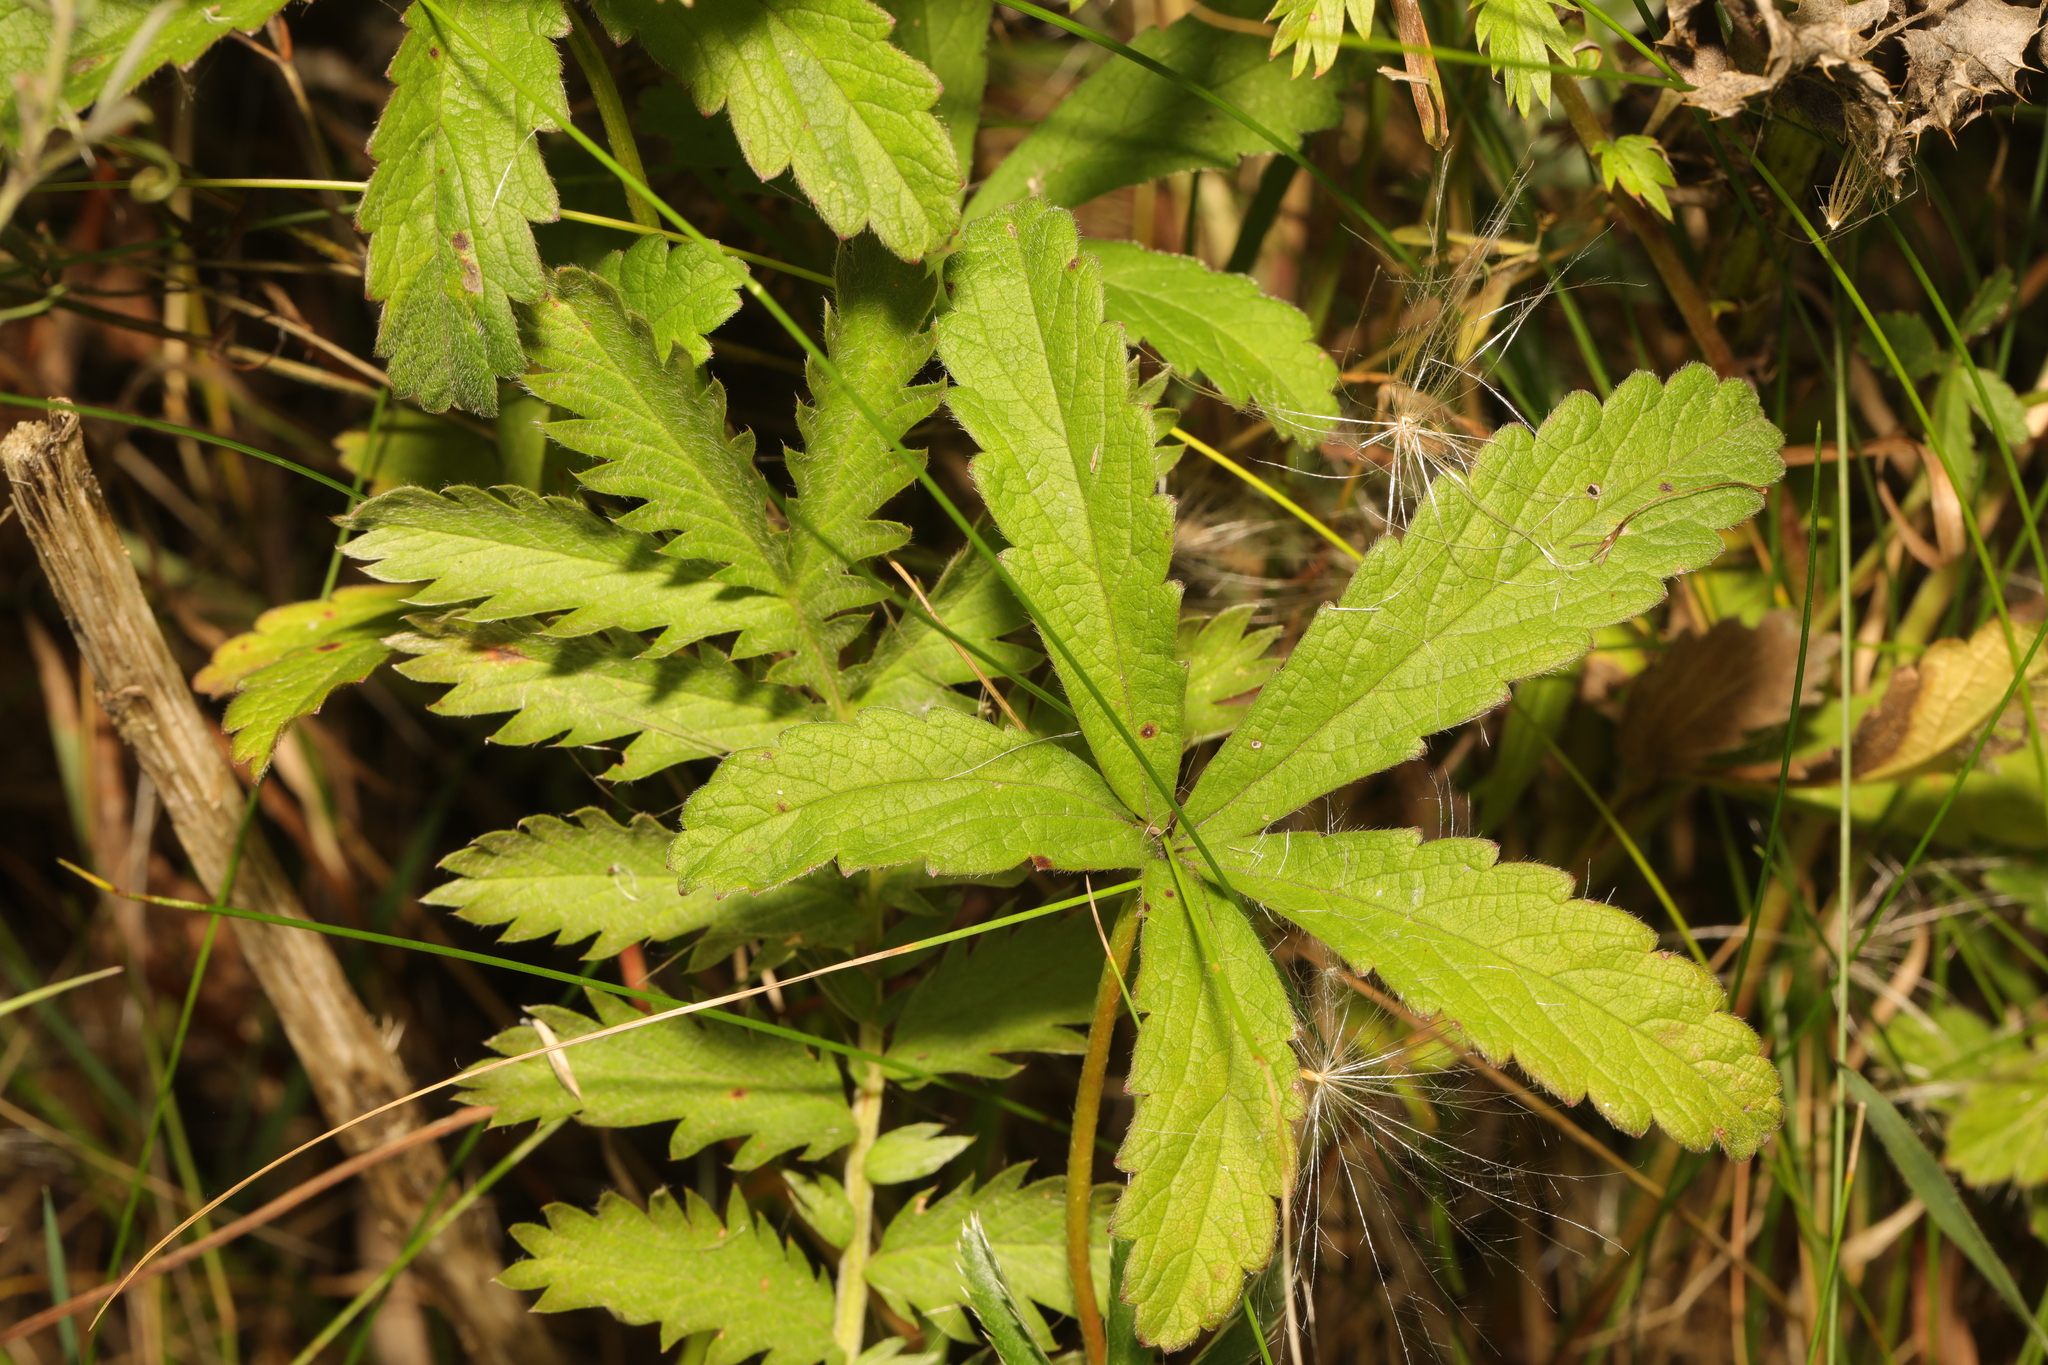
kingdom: Plantae
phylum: Tracheophyta
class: Magnoliopsida
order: Rosales
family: Rosaceae
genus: Potentilla
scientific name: Potentilla reptans
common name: Creeping cinquefoil
